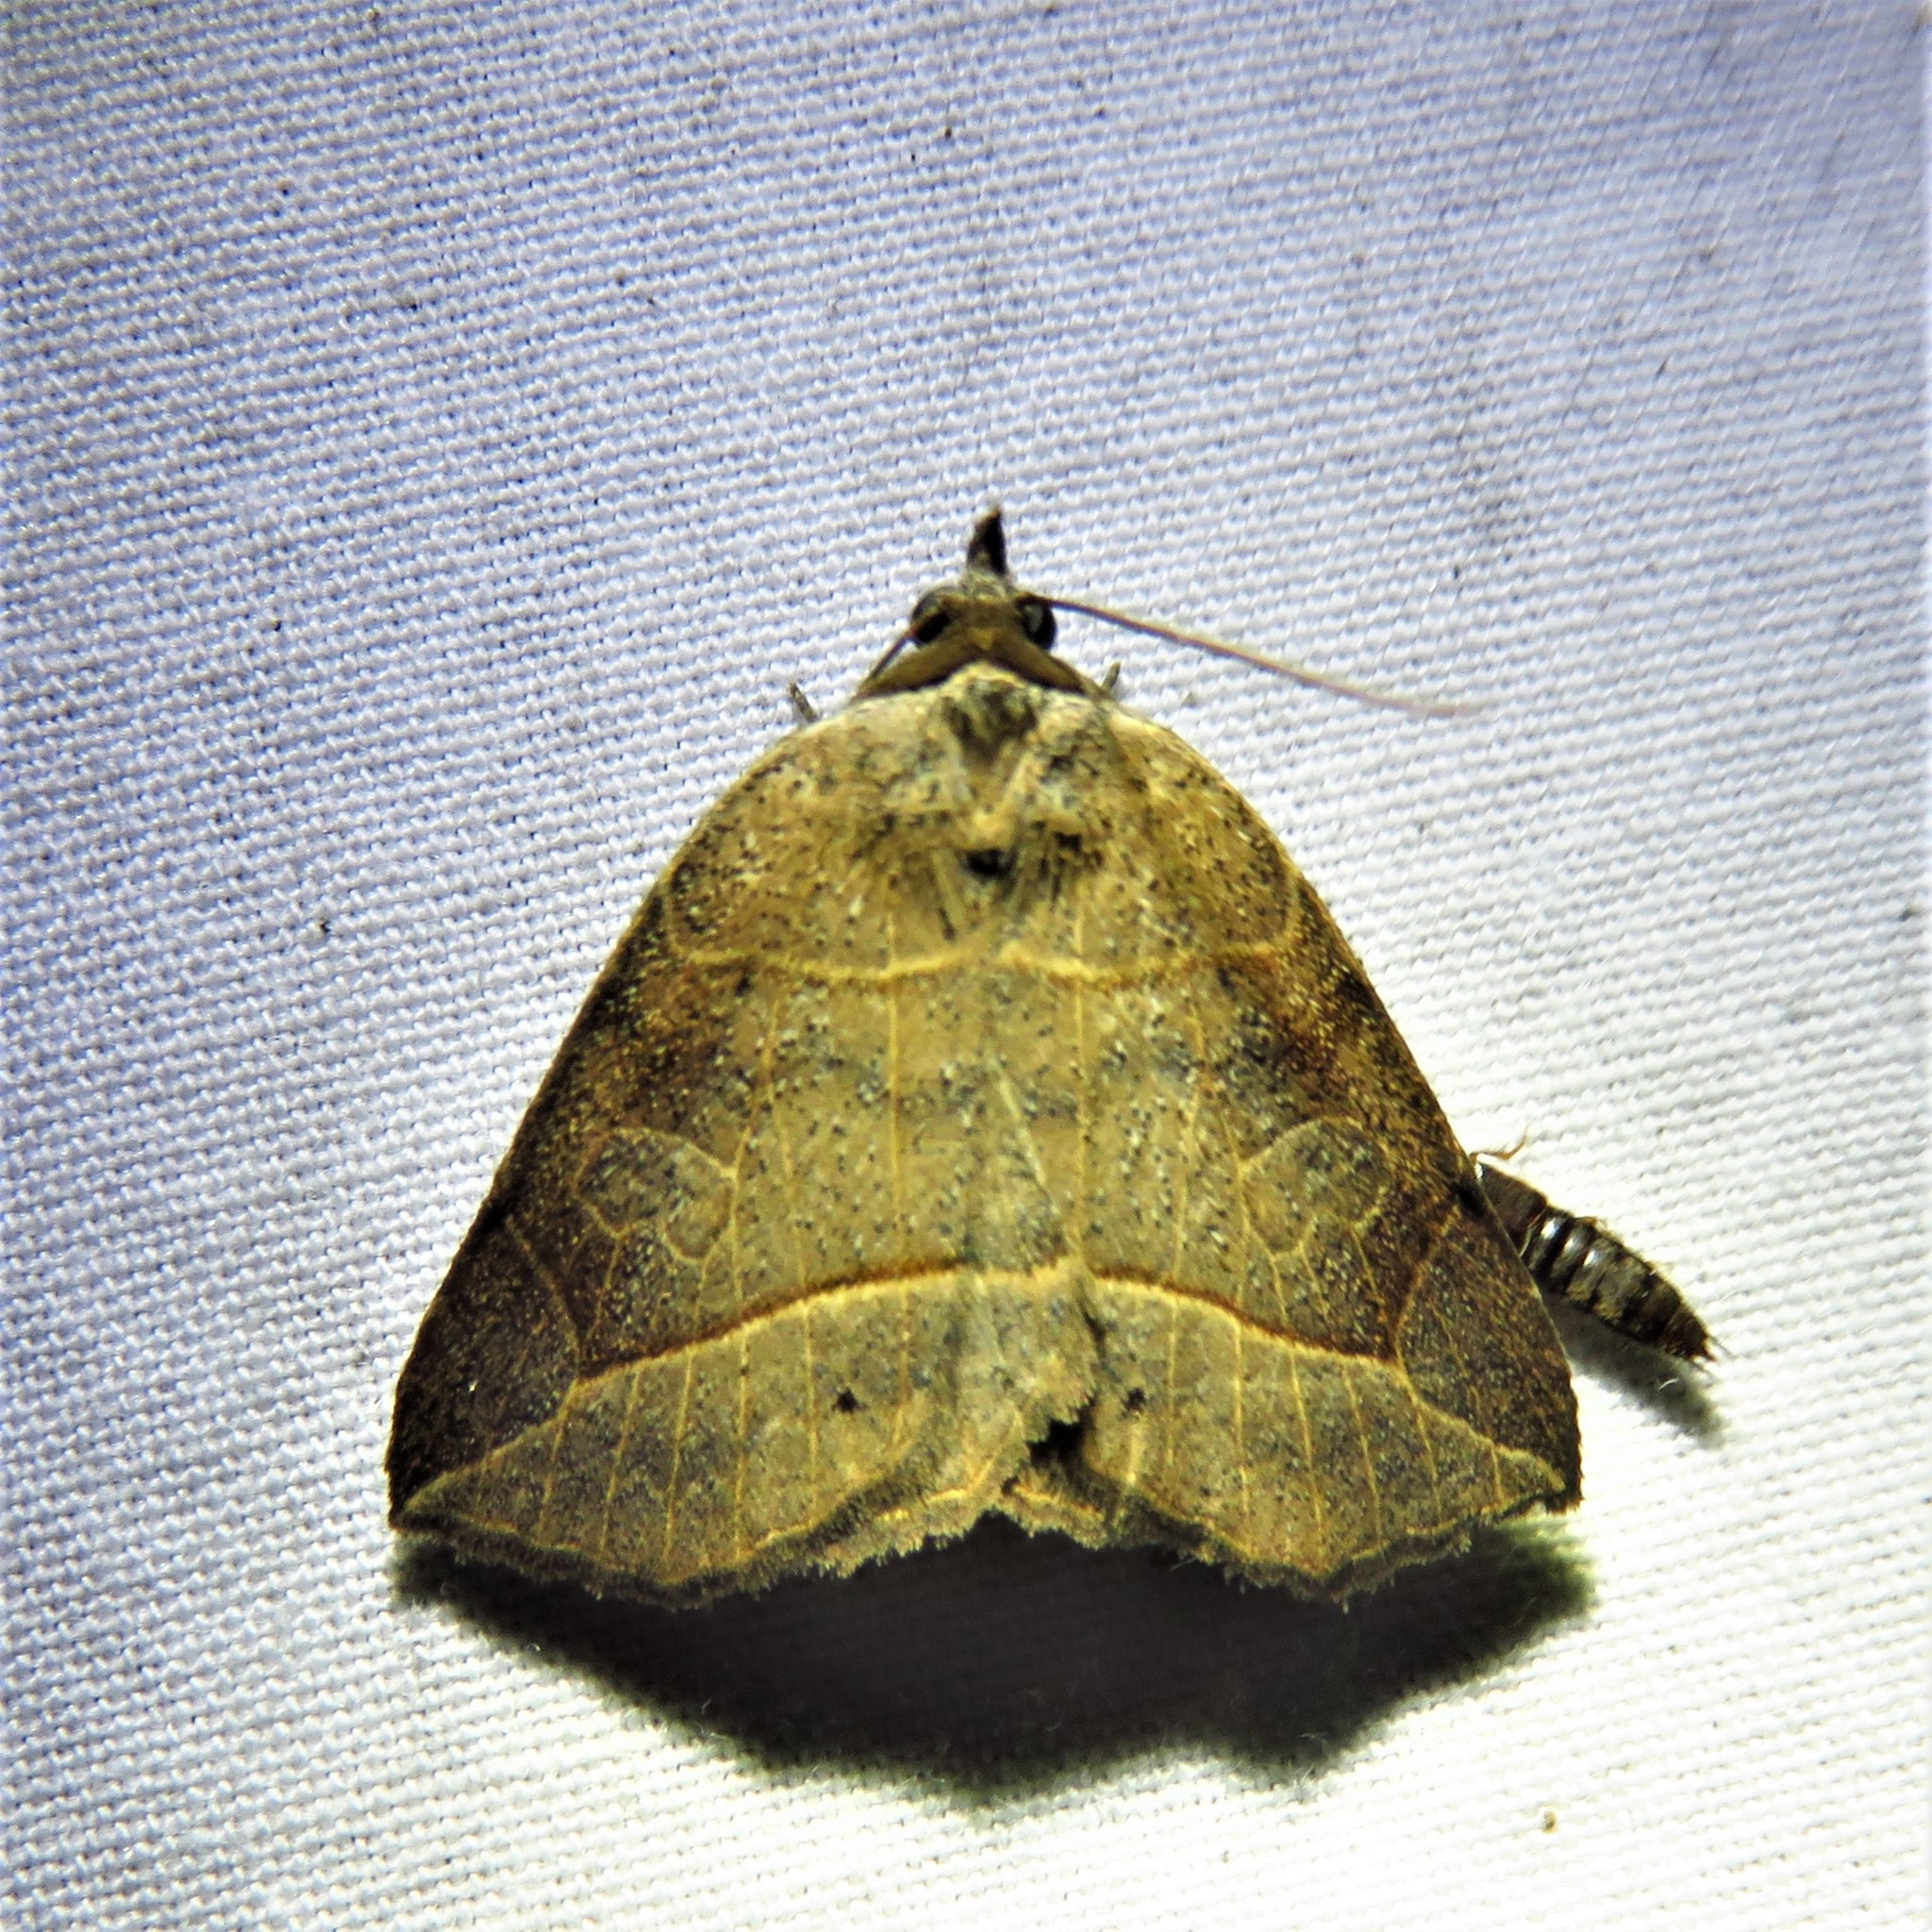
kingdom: Animalia
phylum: Arthropoda
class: Insecta
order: Lepidoptera
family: Erebidae
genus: Isogona
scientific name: Isogona tenuis
